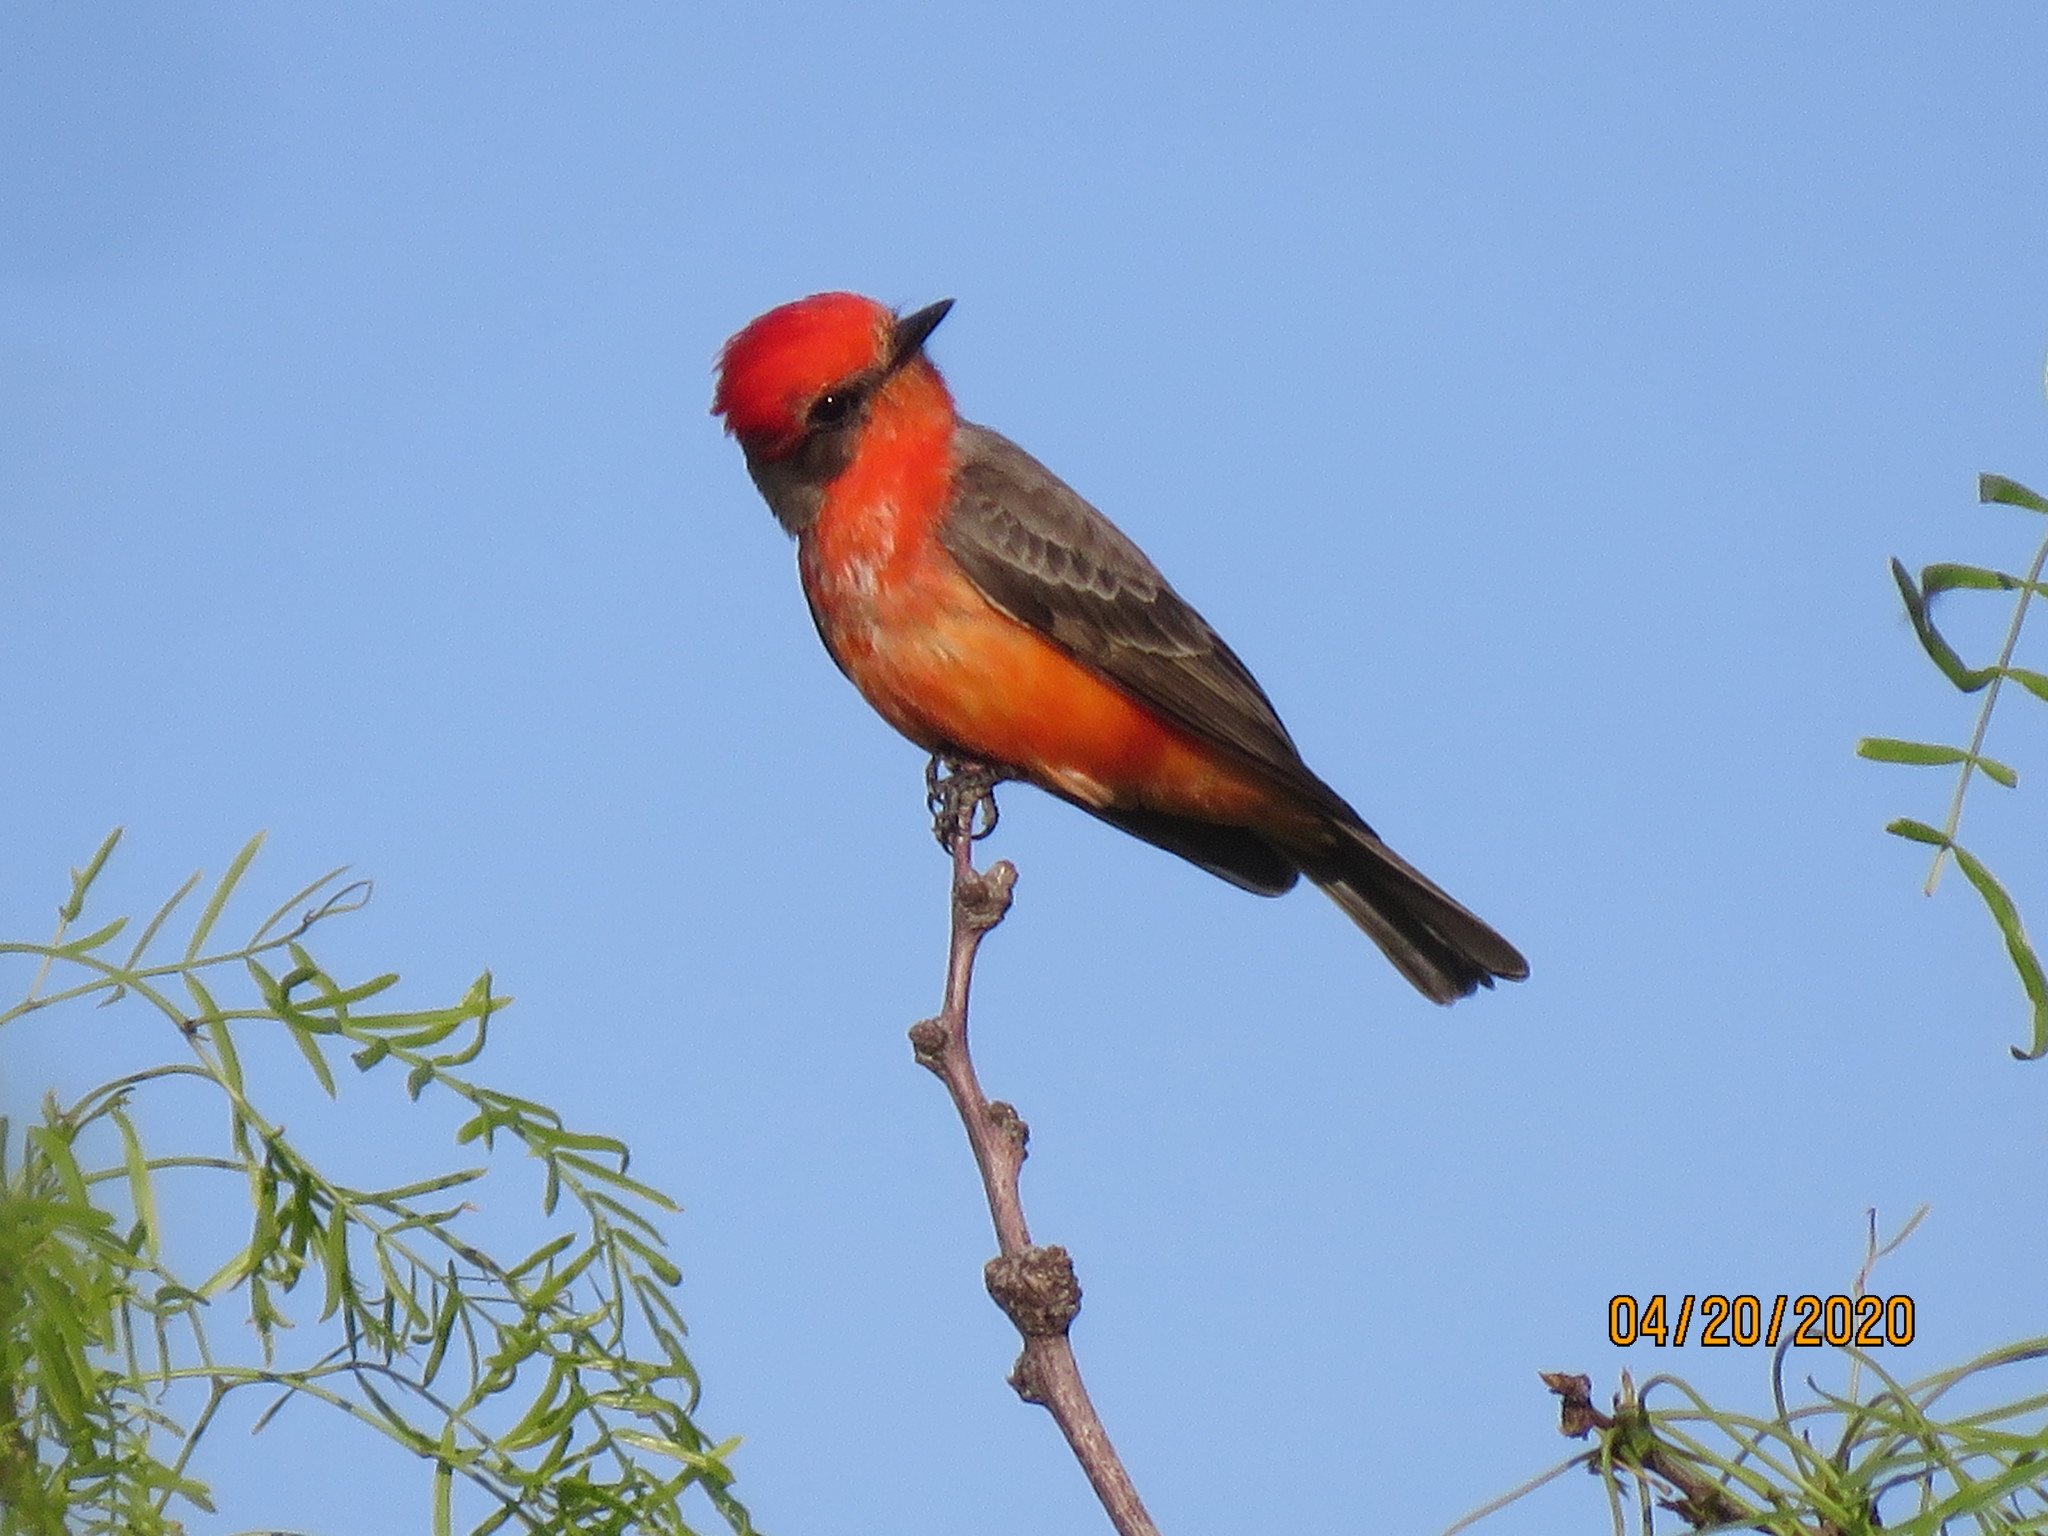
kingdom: Animalia
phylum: Chordata
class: Aves
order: Passeriformes
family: Tyrannidae
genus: Pyrocephalus
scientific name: Pyrocephalus rubinus
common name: Vermilion flycatcher
